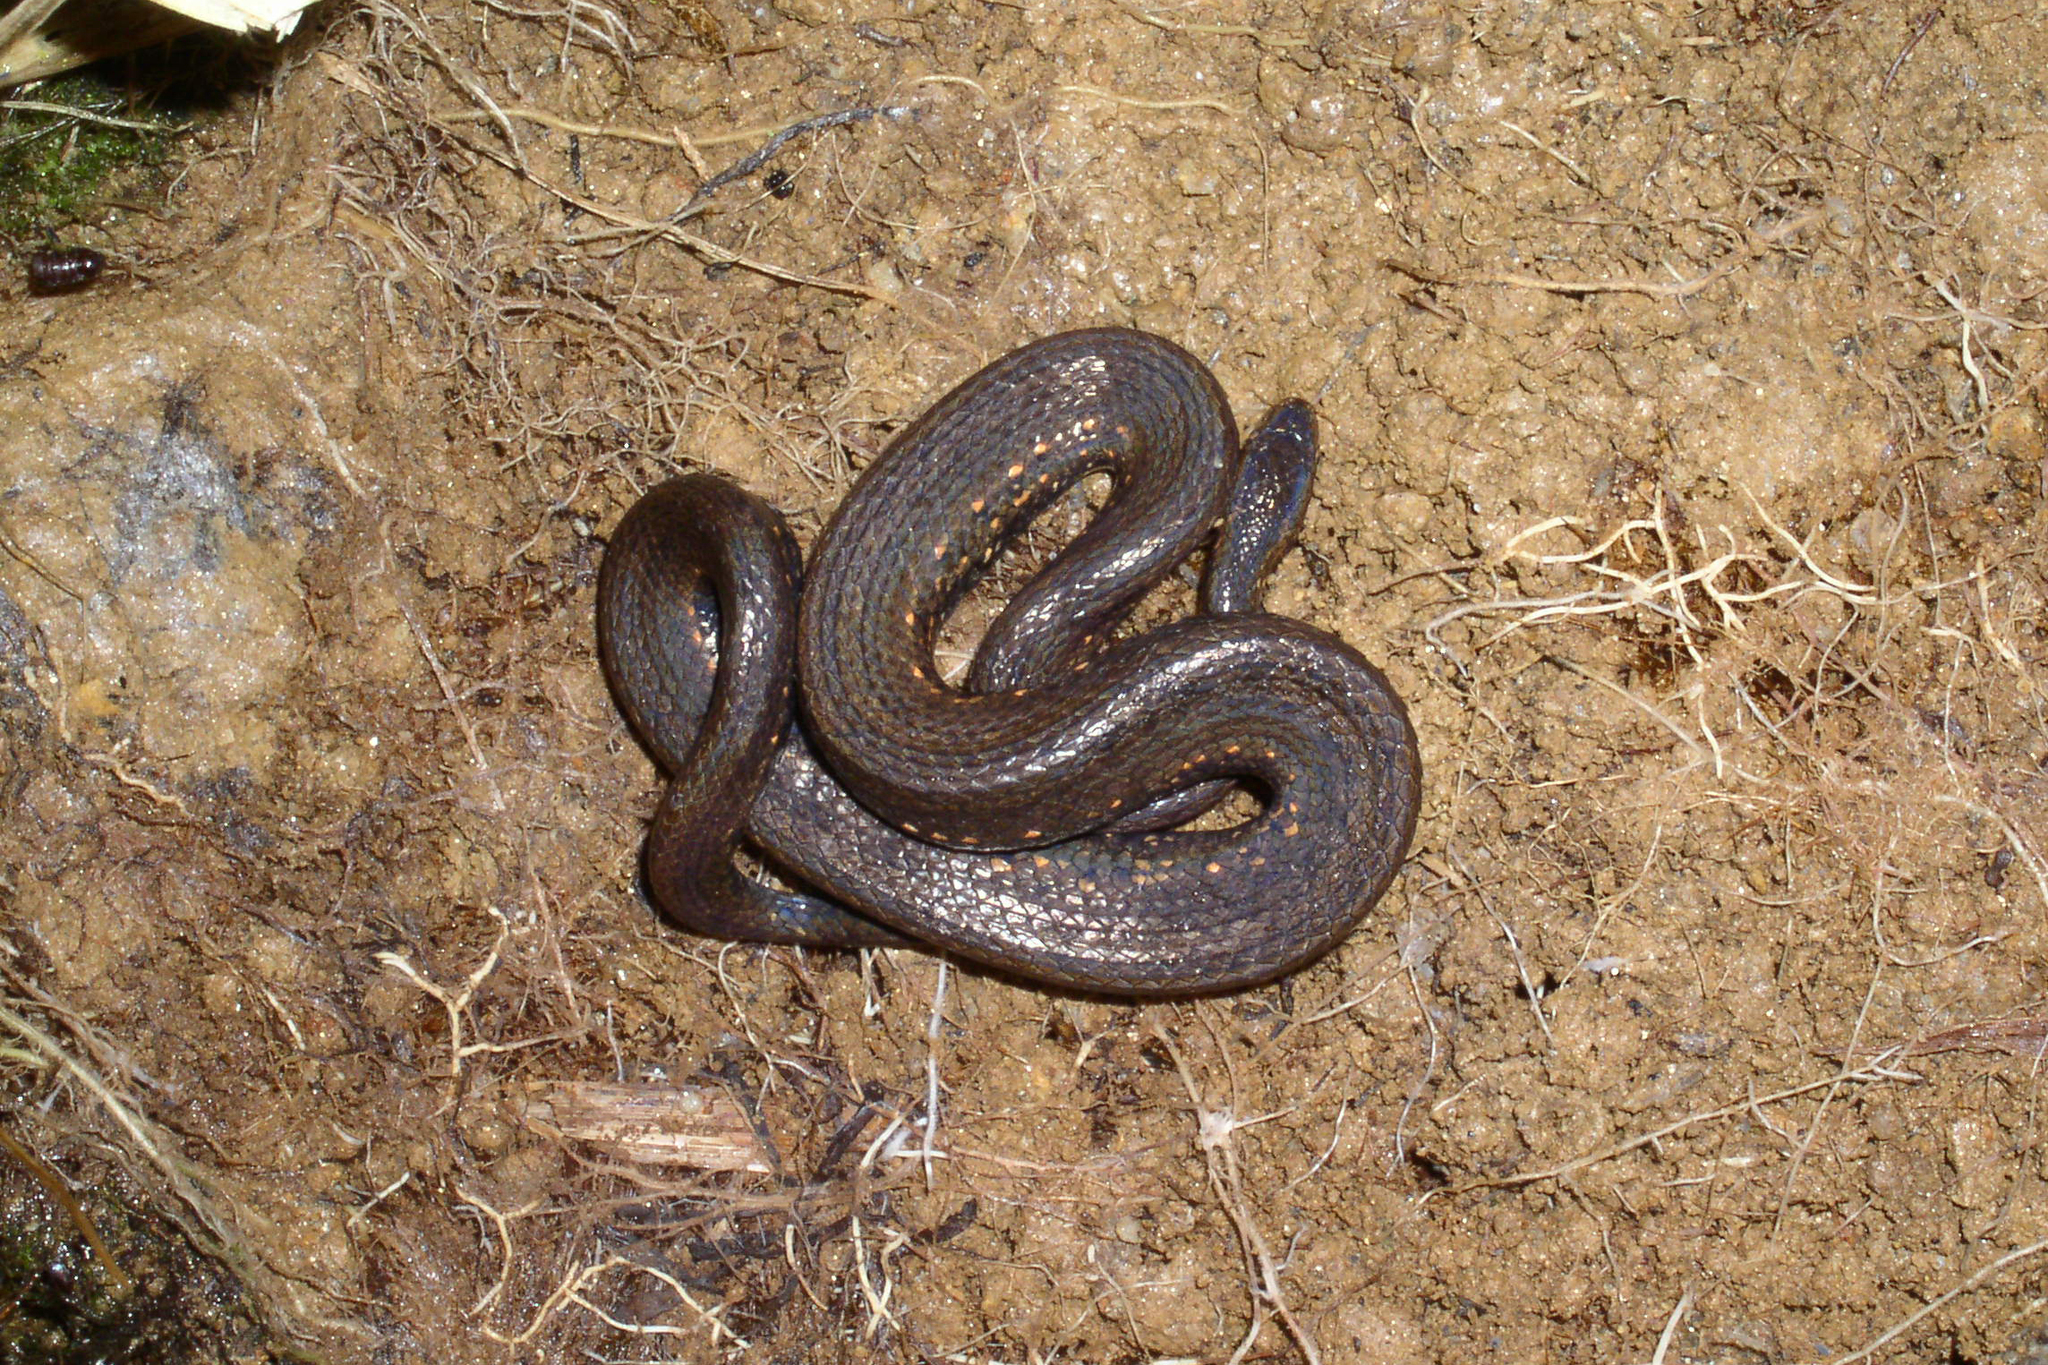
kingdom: Animalia
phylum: Chordata
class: Squamata
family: Tropidophiidae
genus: Tropidophis
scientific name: Tropidophis taczanowskyi
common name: Taczanowsky's dwarf boa
